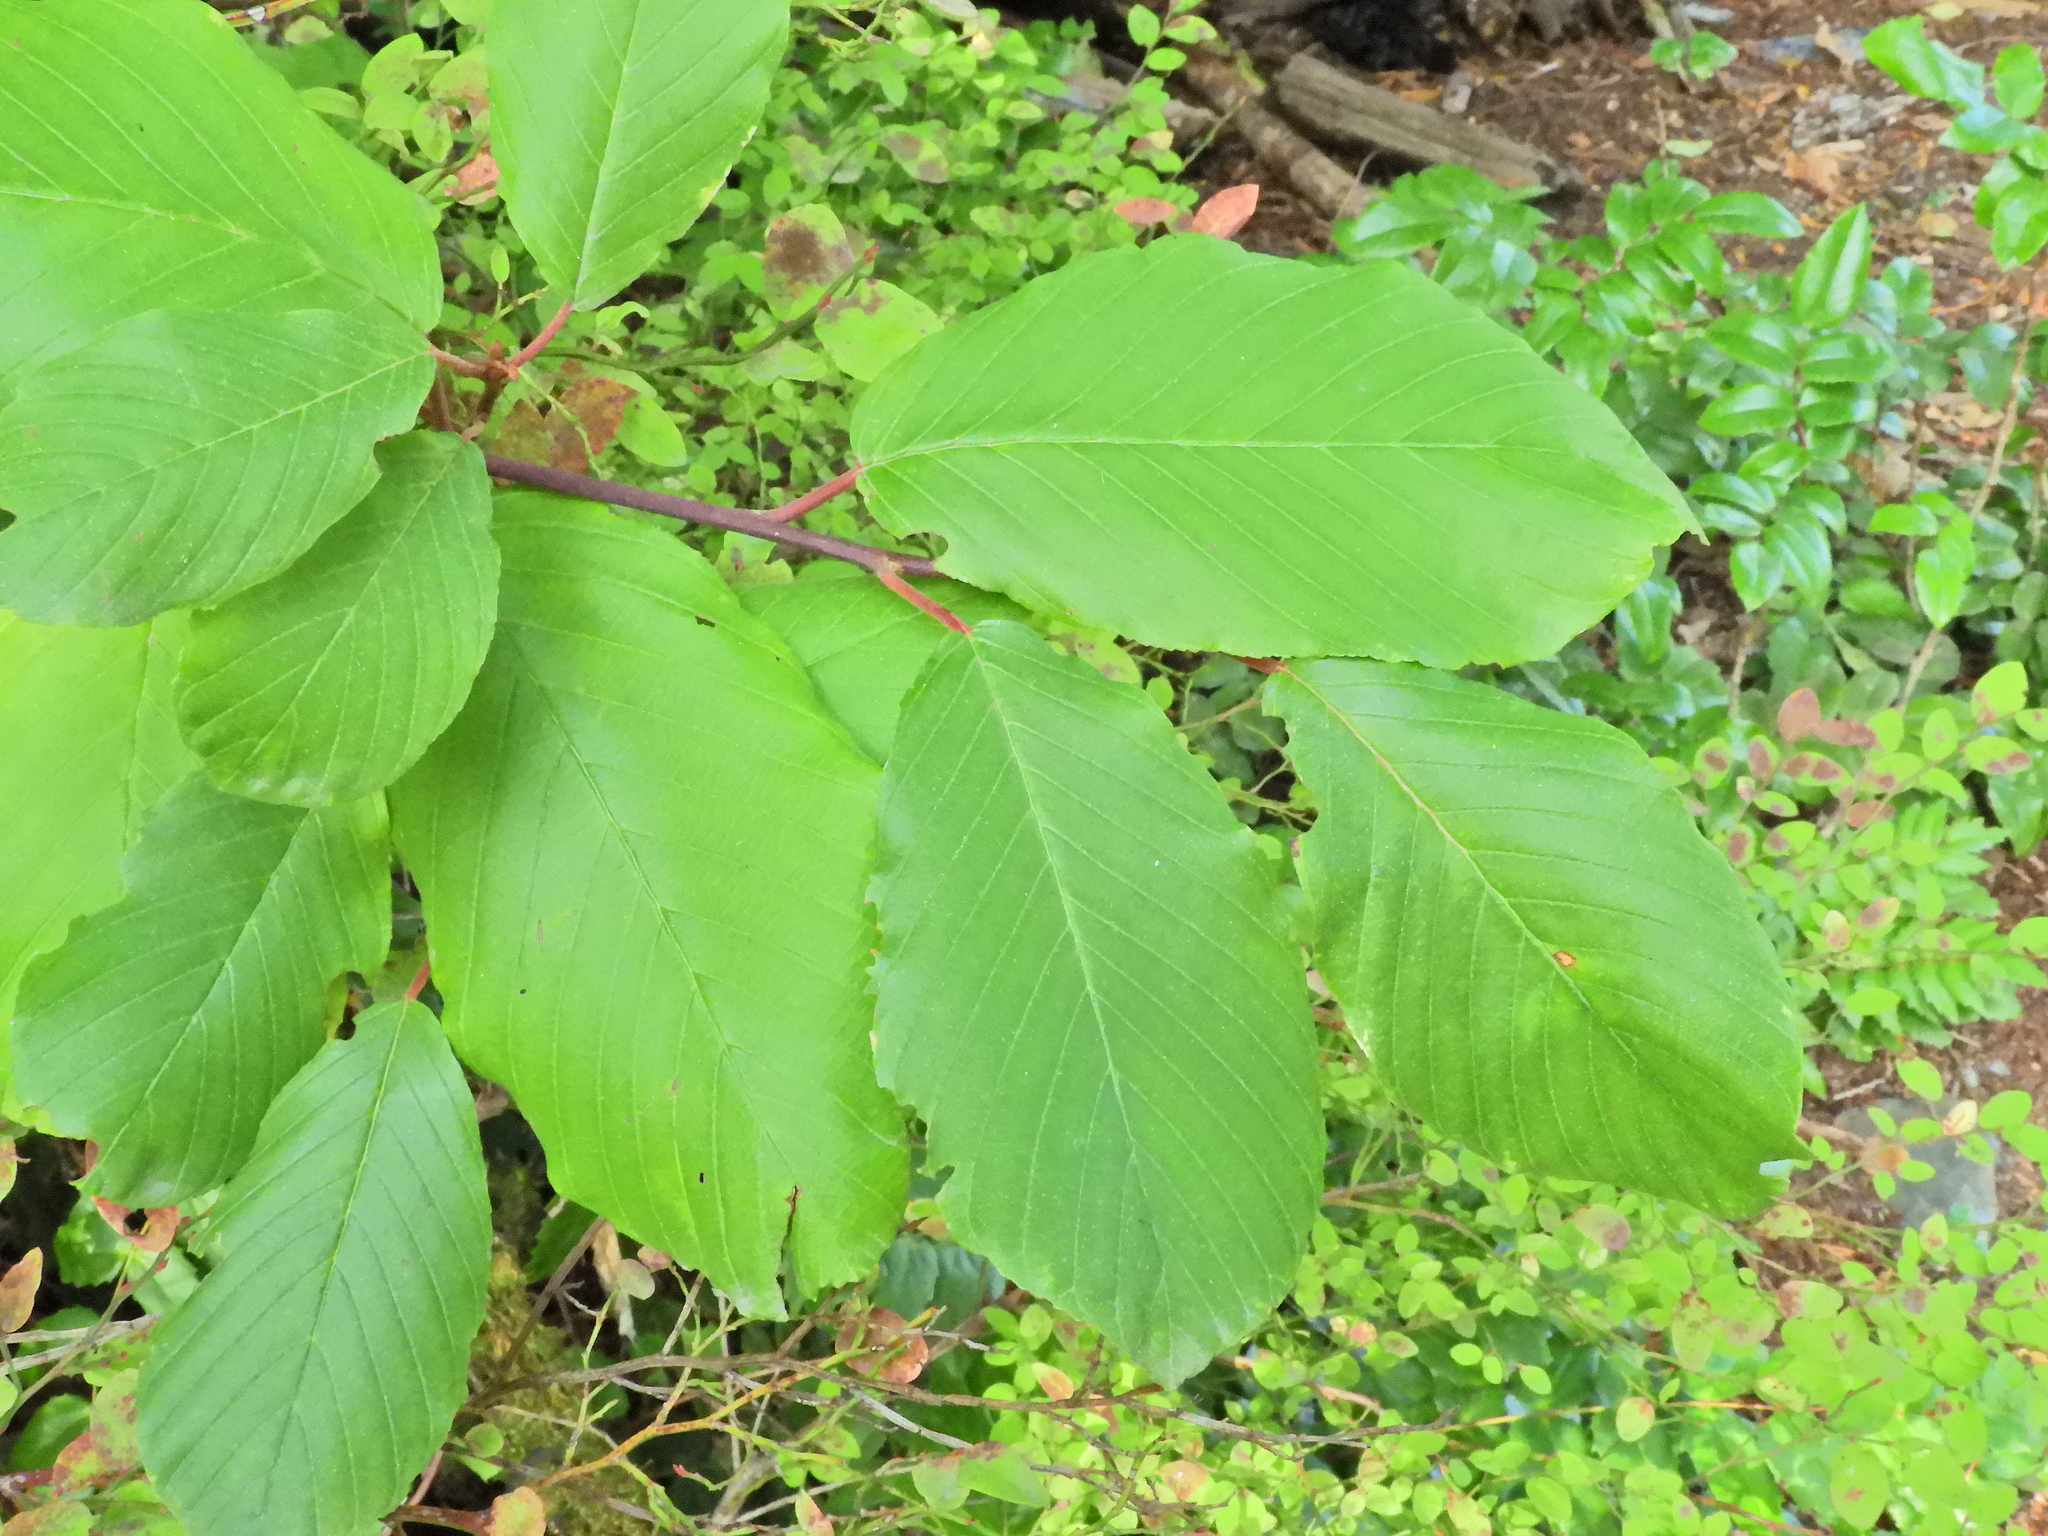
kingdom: Plantae
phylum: Tracheophyta
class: Magnoliopsida
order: Rosales
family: Rhamnaceae
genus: Frangula
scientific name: Frangula purshiana
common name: Cascara buckthorn
